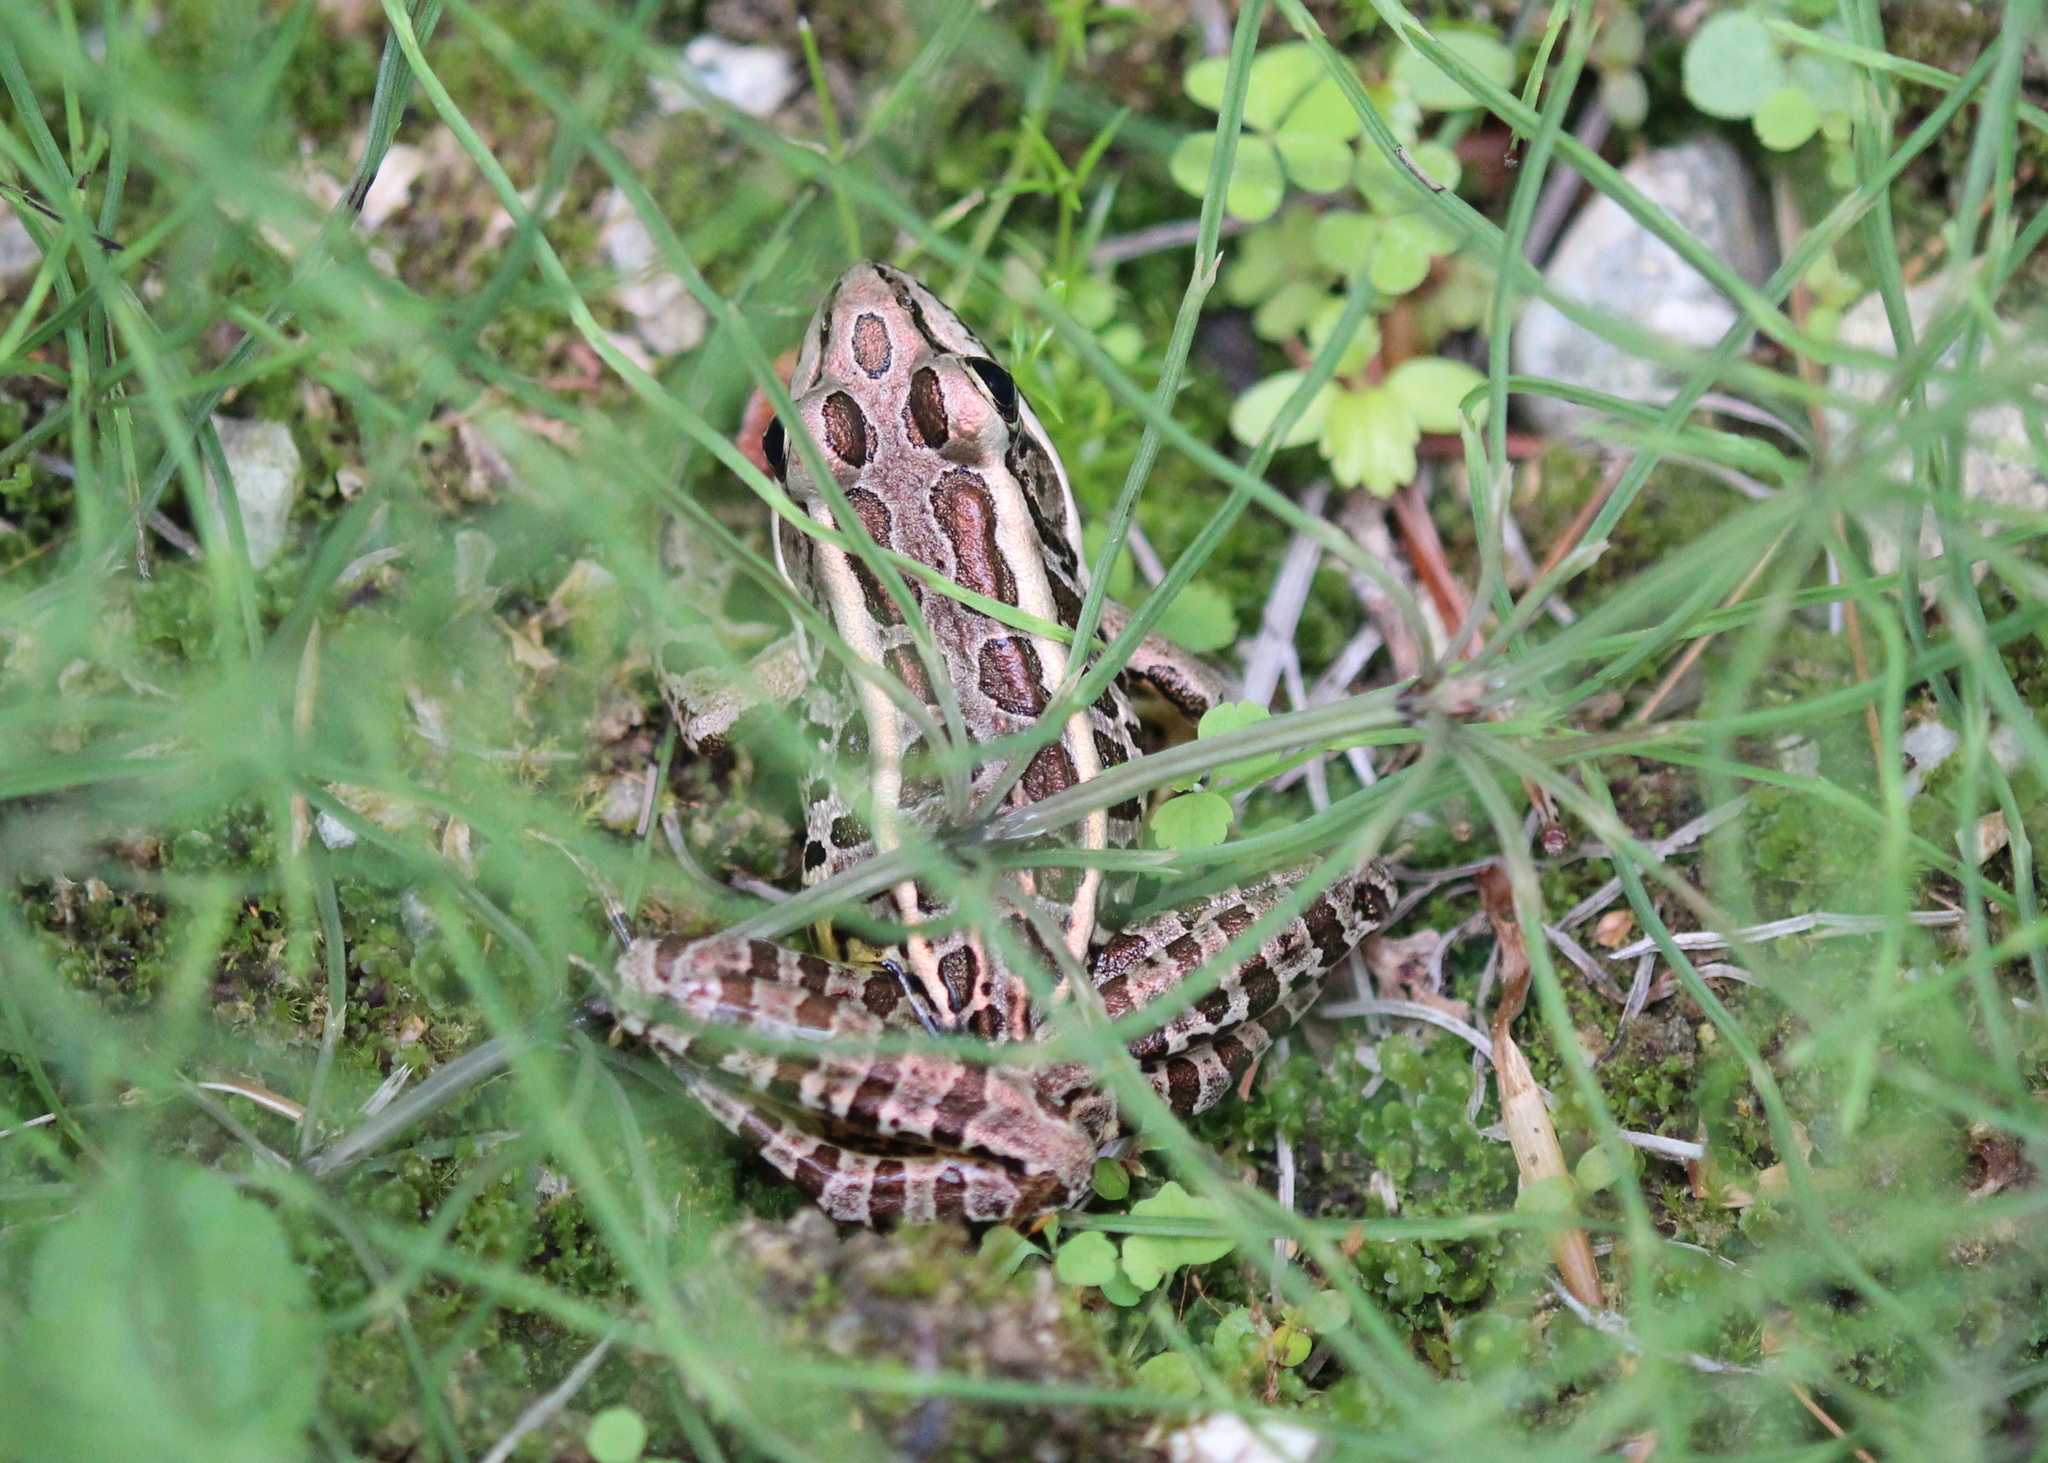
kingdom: Animalia
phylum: Chordata
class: Amphibia
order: Anura
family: Ranidae
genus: Lithobates
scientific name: Lithobates palustris
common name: Pickerel frog
